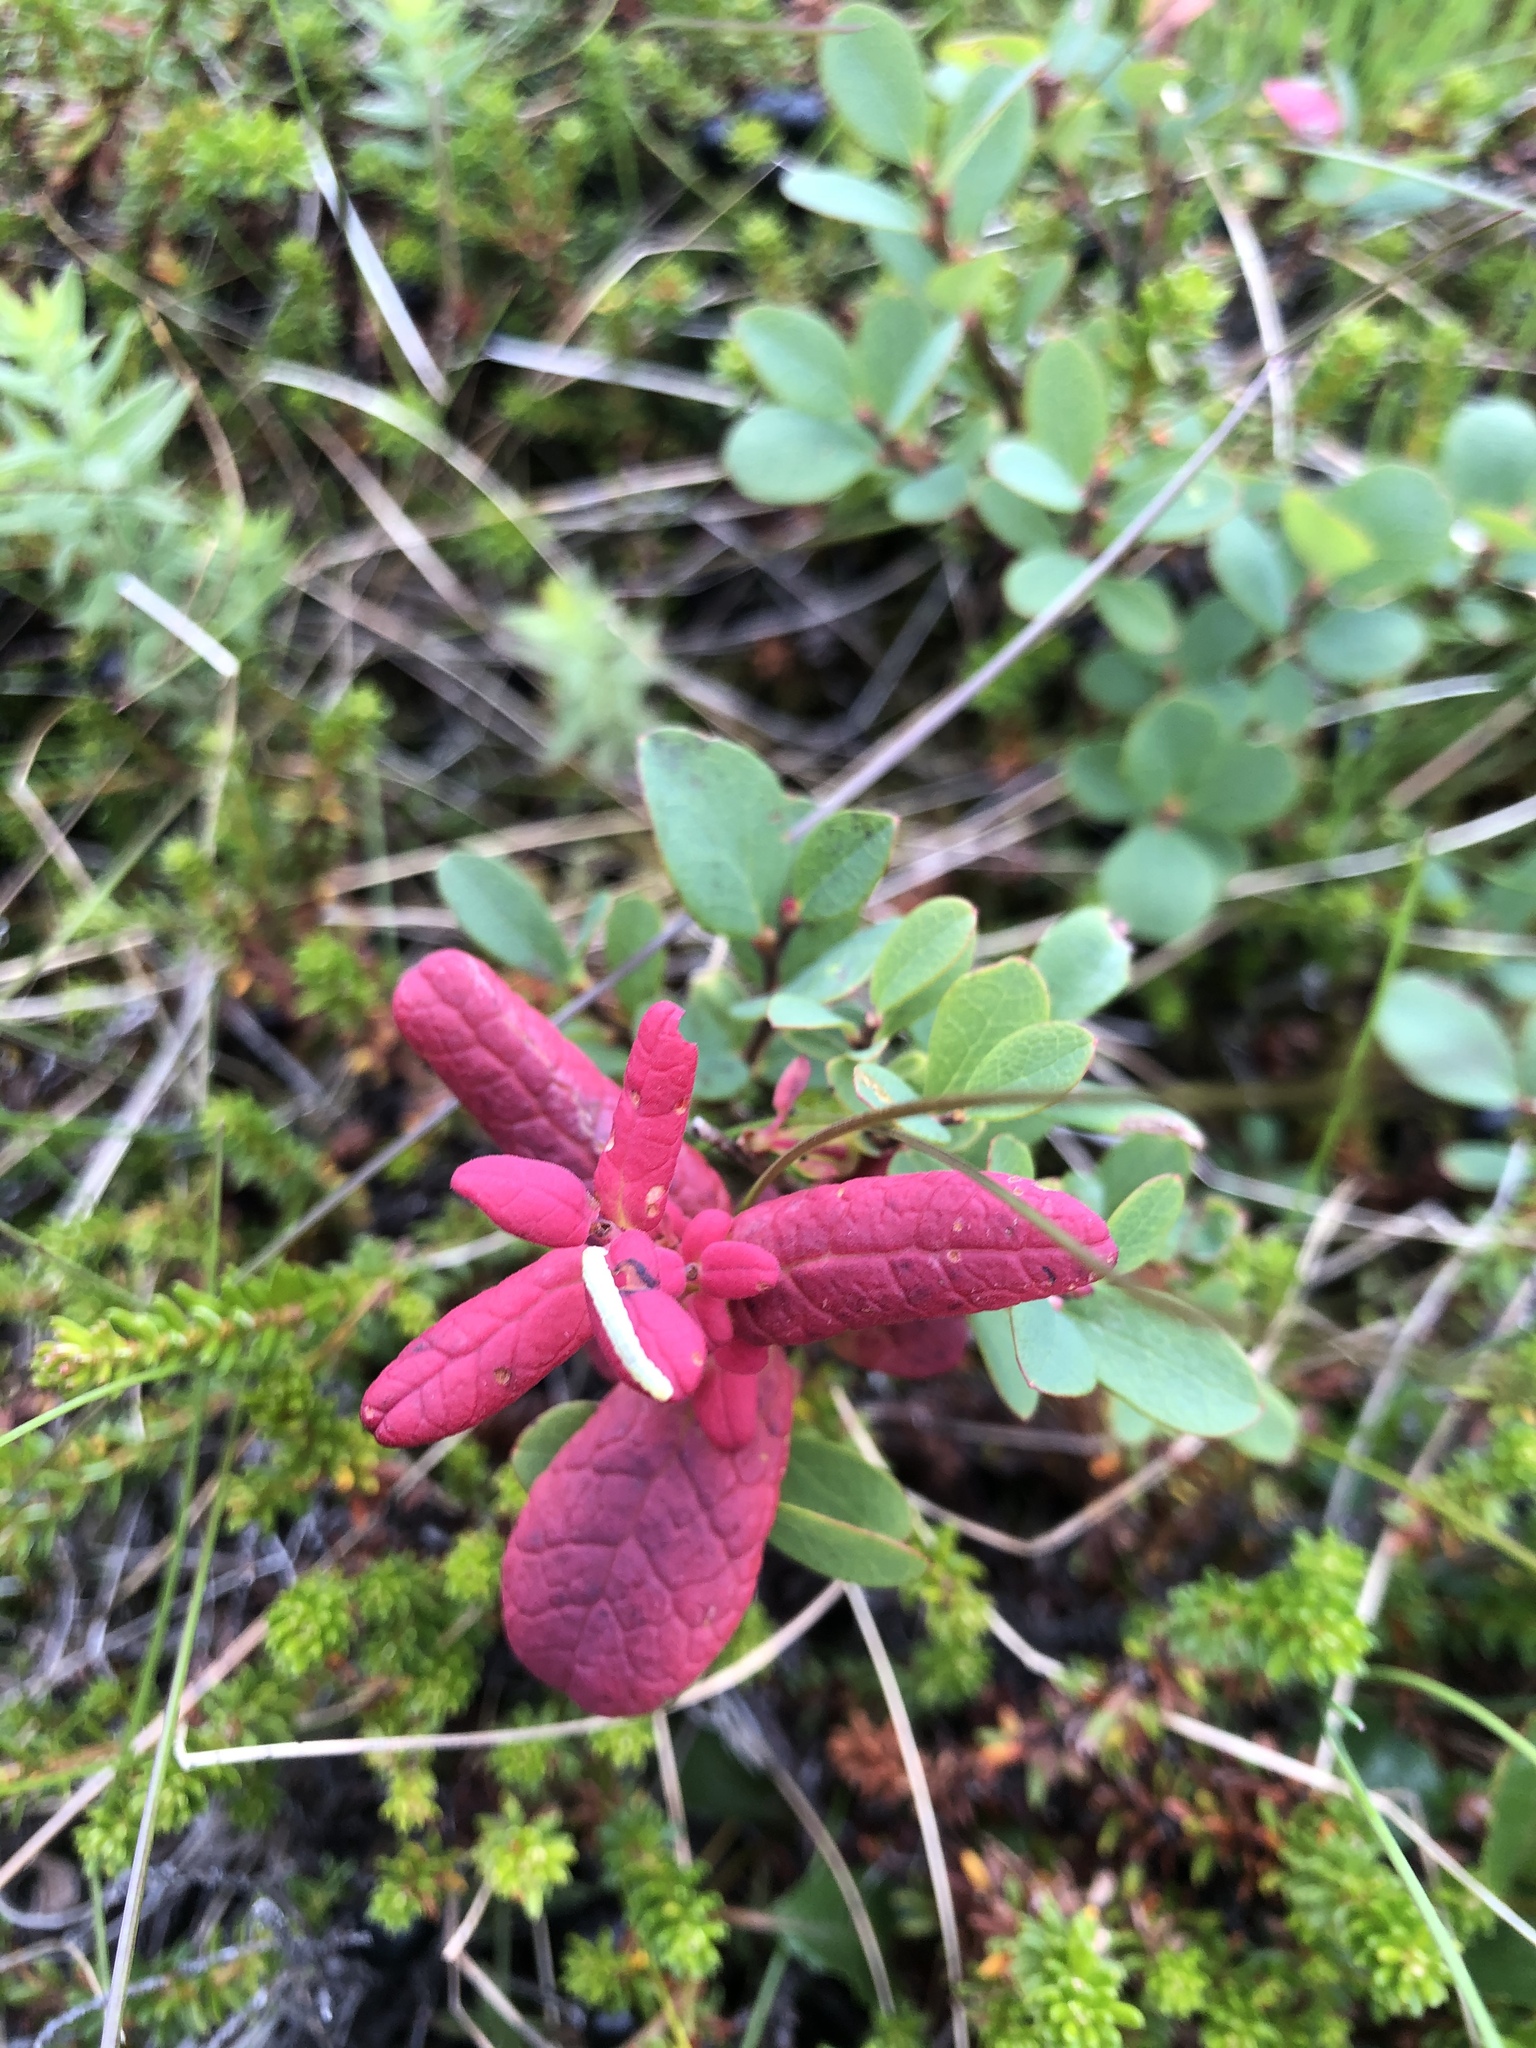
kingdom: Plantae
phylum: Tracheophyta
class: Magnoliopsida
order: Ericales
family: Ericaceae
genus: Vaccinium
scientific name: Vaccinium uliginosum
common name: Bog bilberry
